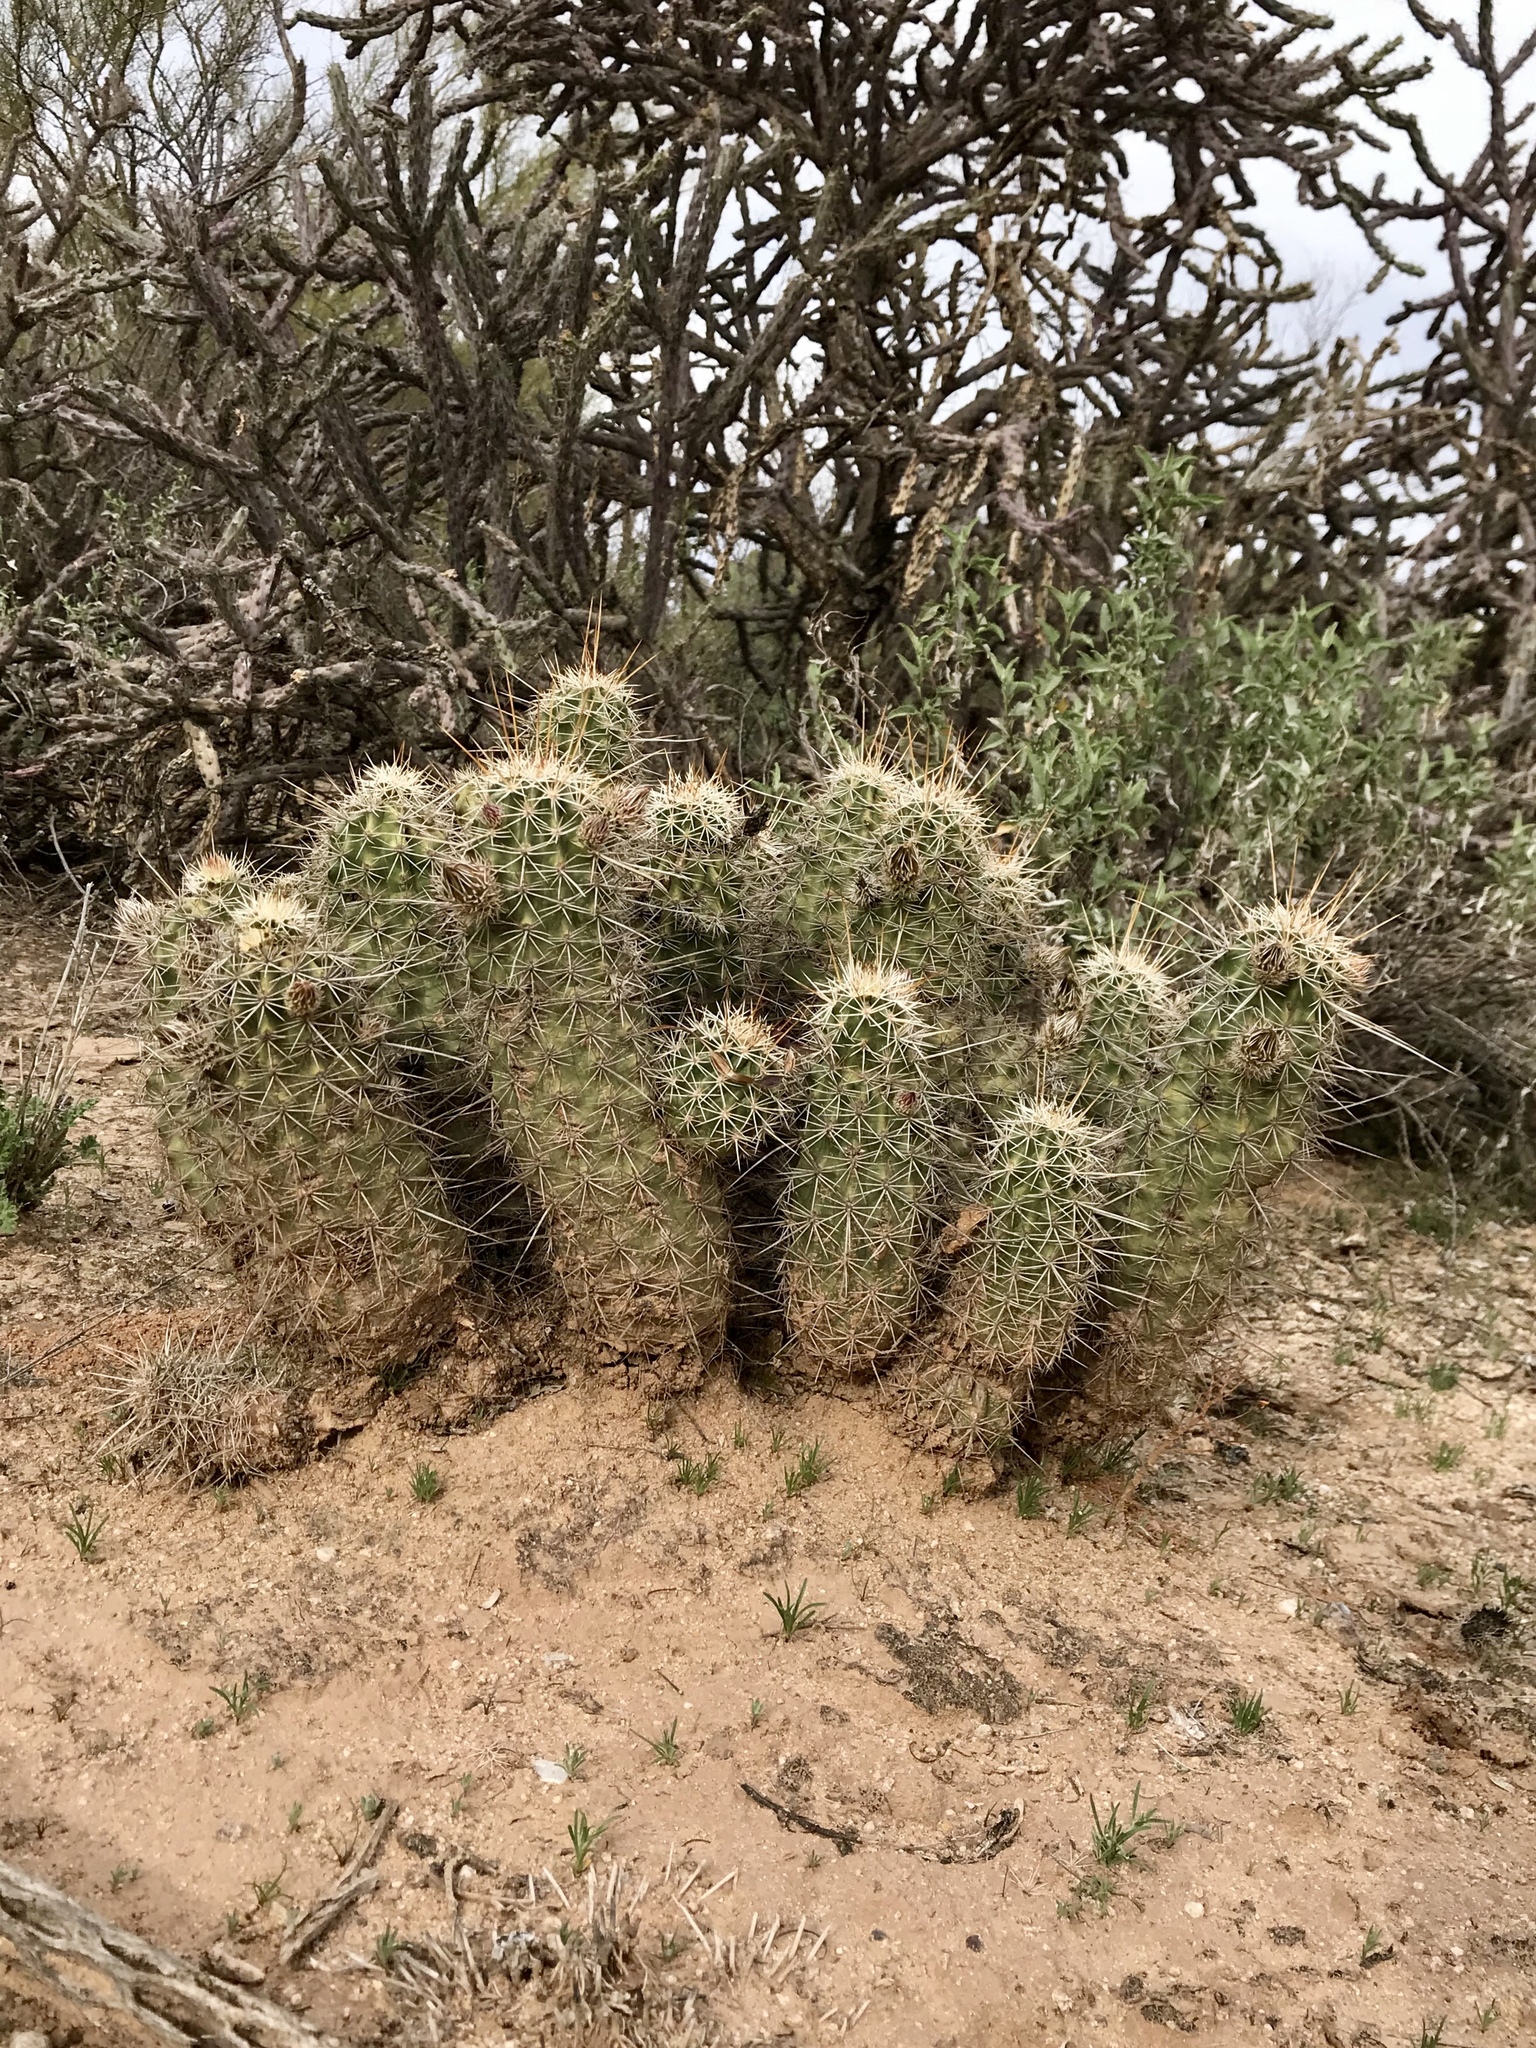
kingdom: Plantae
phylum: Tracheophyta
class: Magnoliopsida
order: Caryophyllales
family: Cactaceae
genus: Echinocereus
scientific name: Echinocereus fasciculatus
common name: Bundle hedgehog
